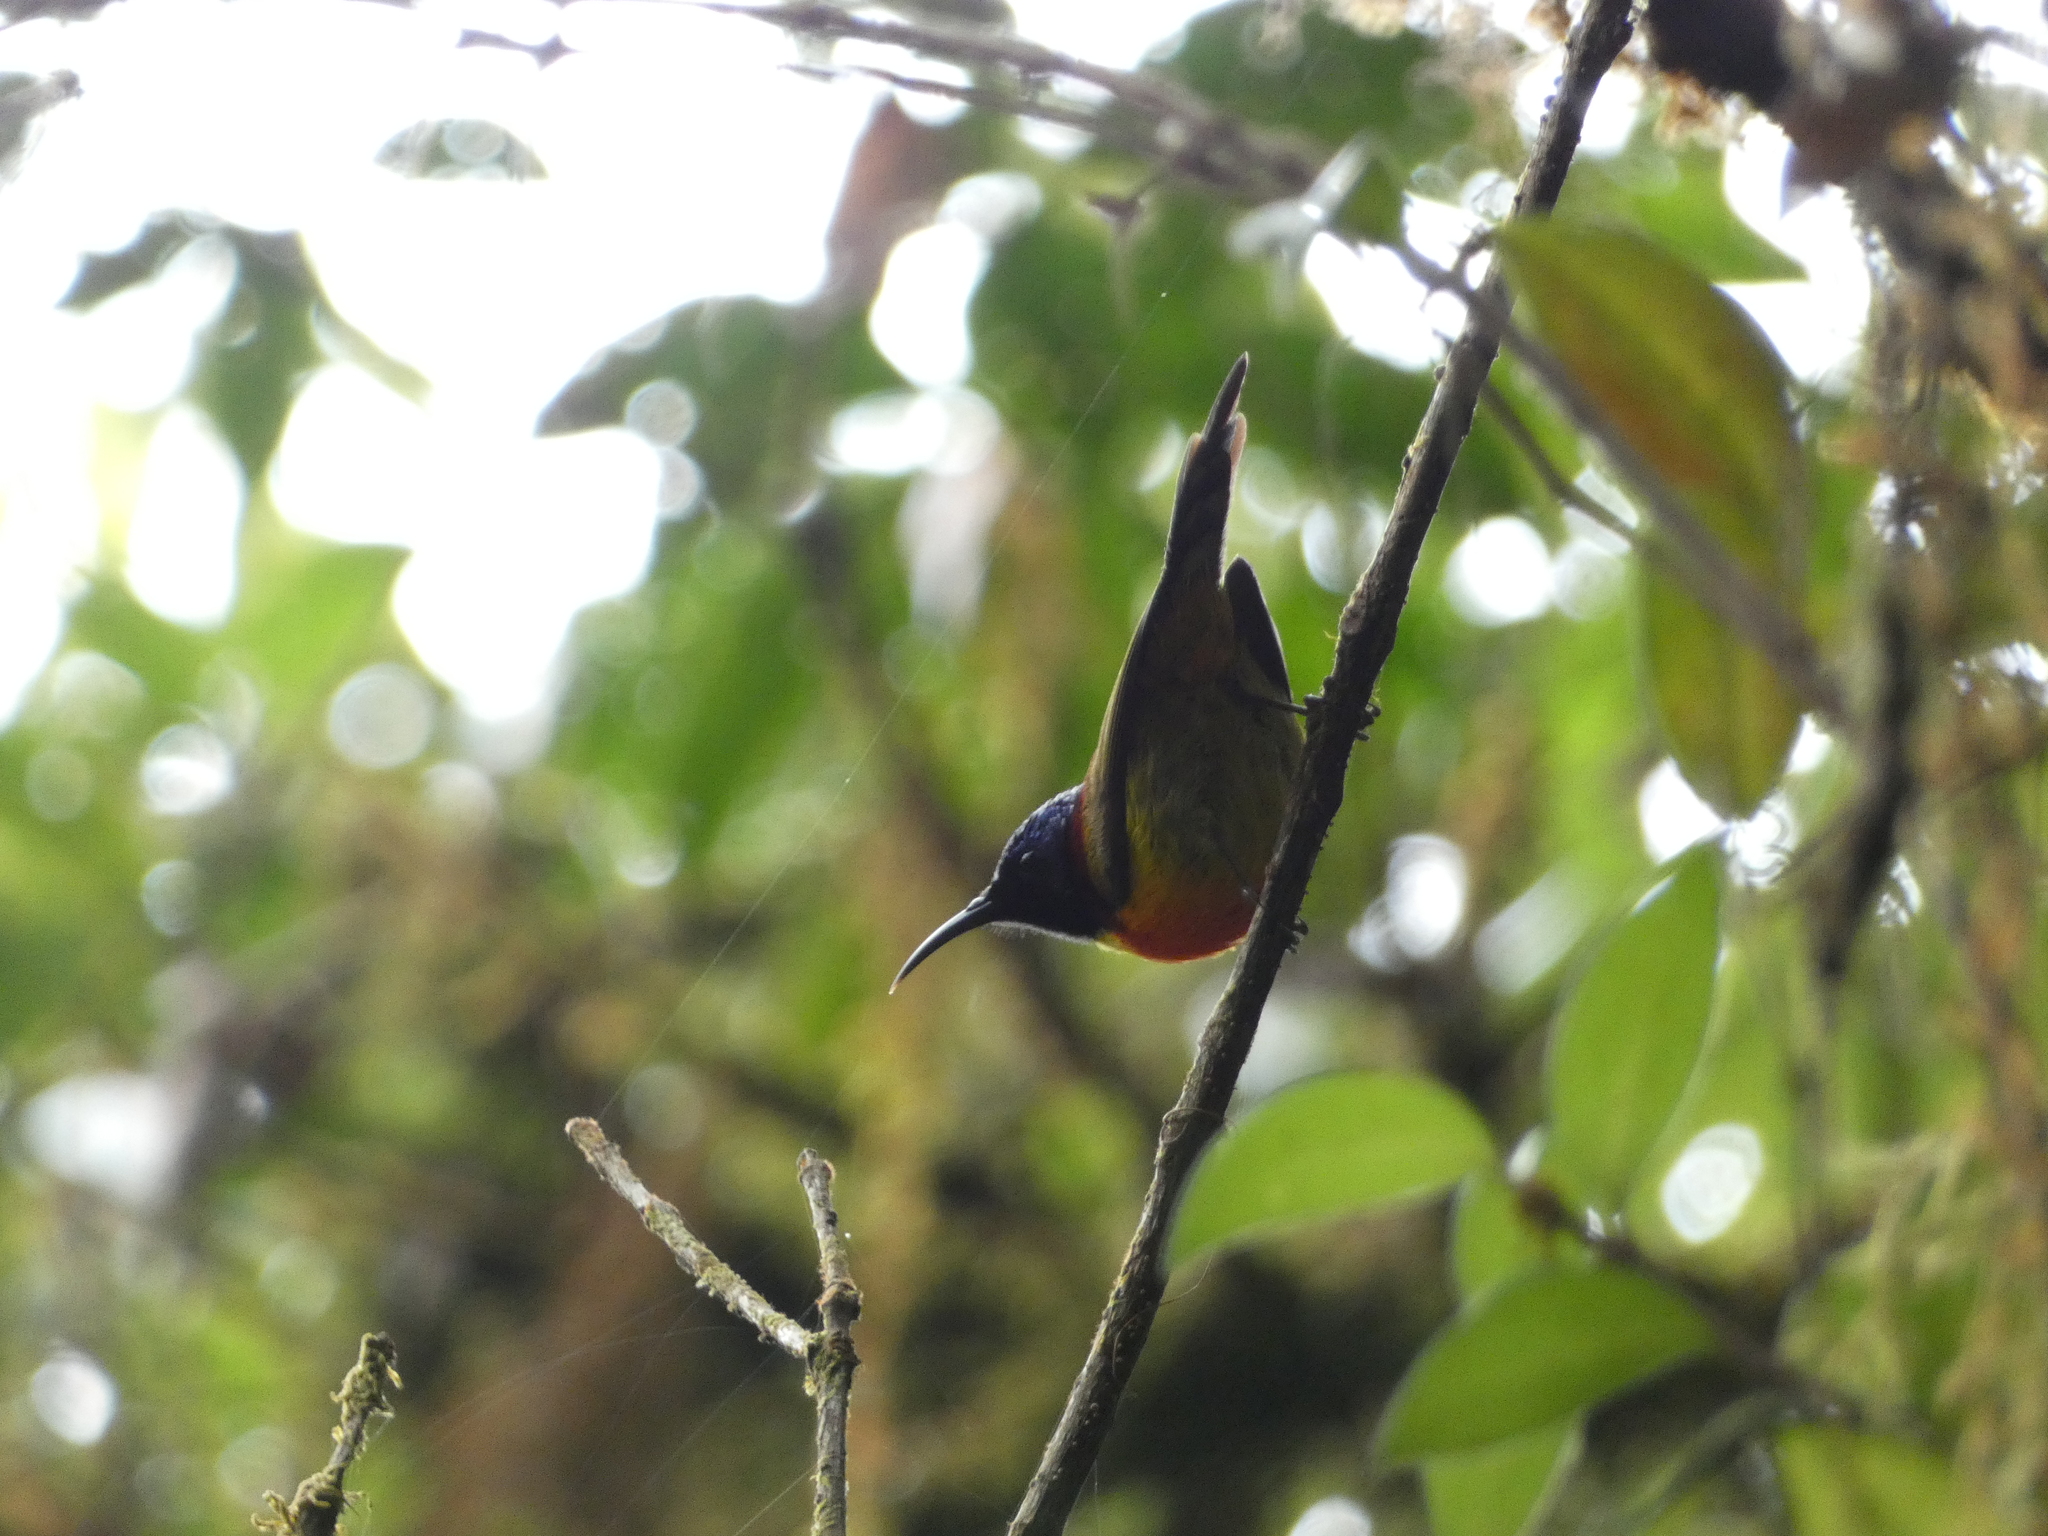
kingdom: Animalia
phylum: Chordata
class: Aves
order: Passeriformes
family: Nectariniidae
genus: Aethopyga
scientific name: Aethopyga nipalensis
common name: Green-tailed sunbird
